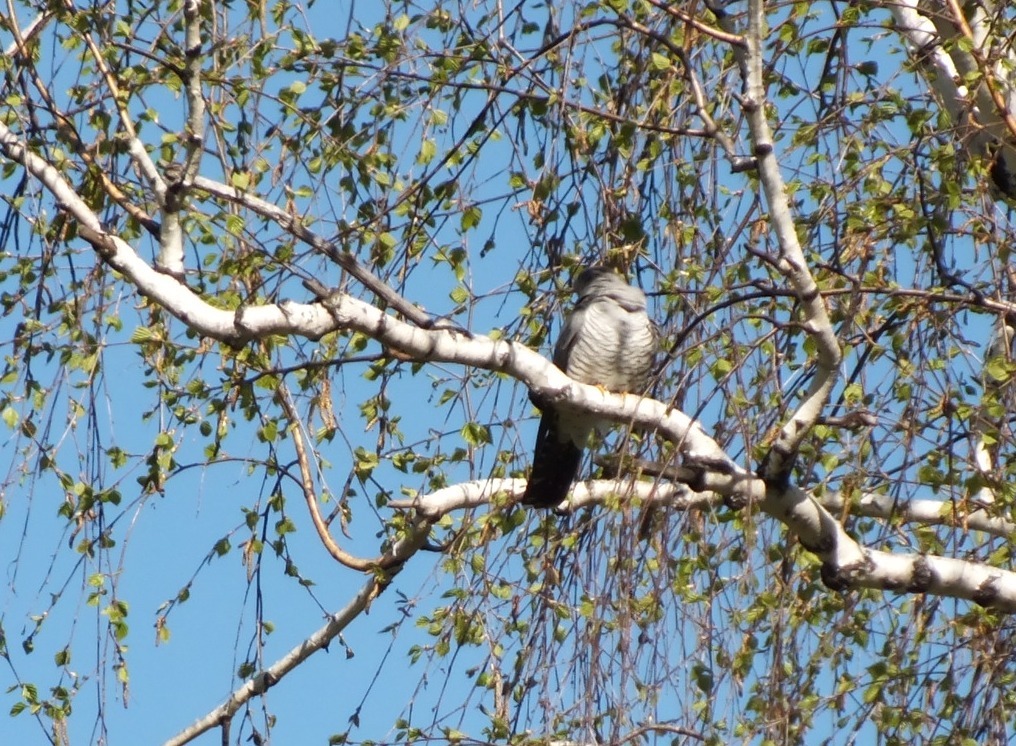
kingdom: Animalia
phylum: Chordata
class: Aves
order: Cuculiformes
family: Cuculidae
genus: Cuculus
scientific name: Cuculus canorus
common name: Common cuckoo
